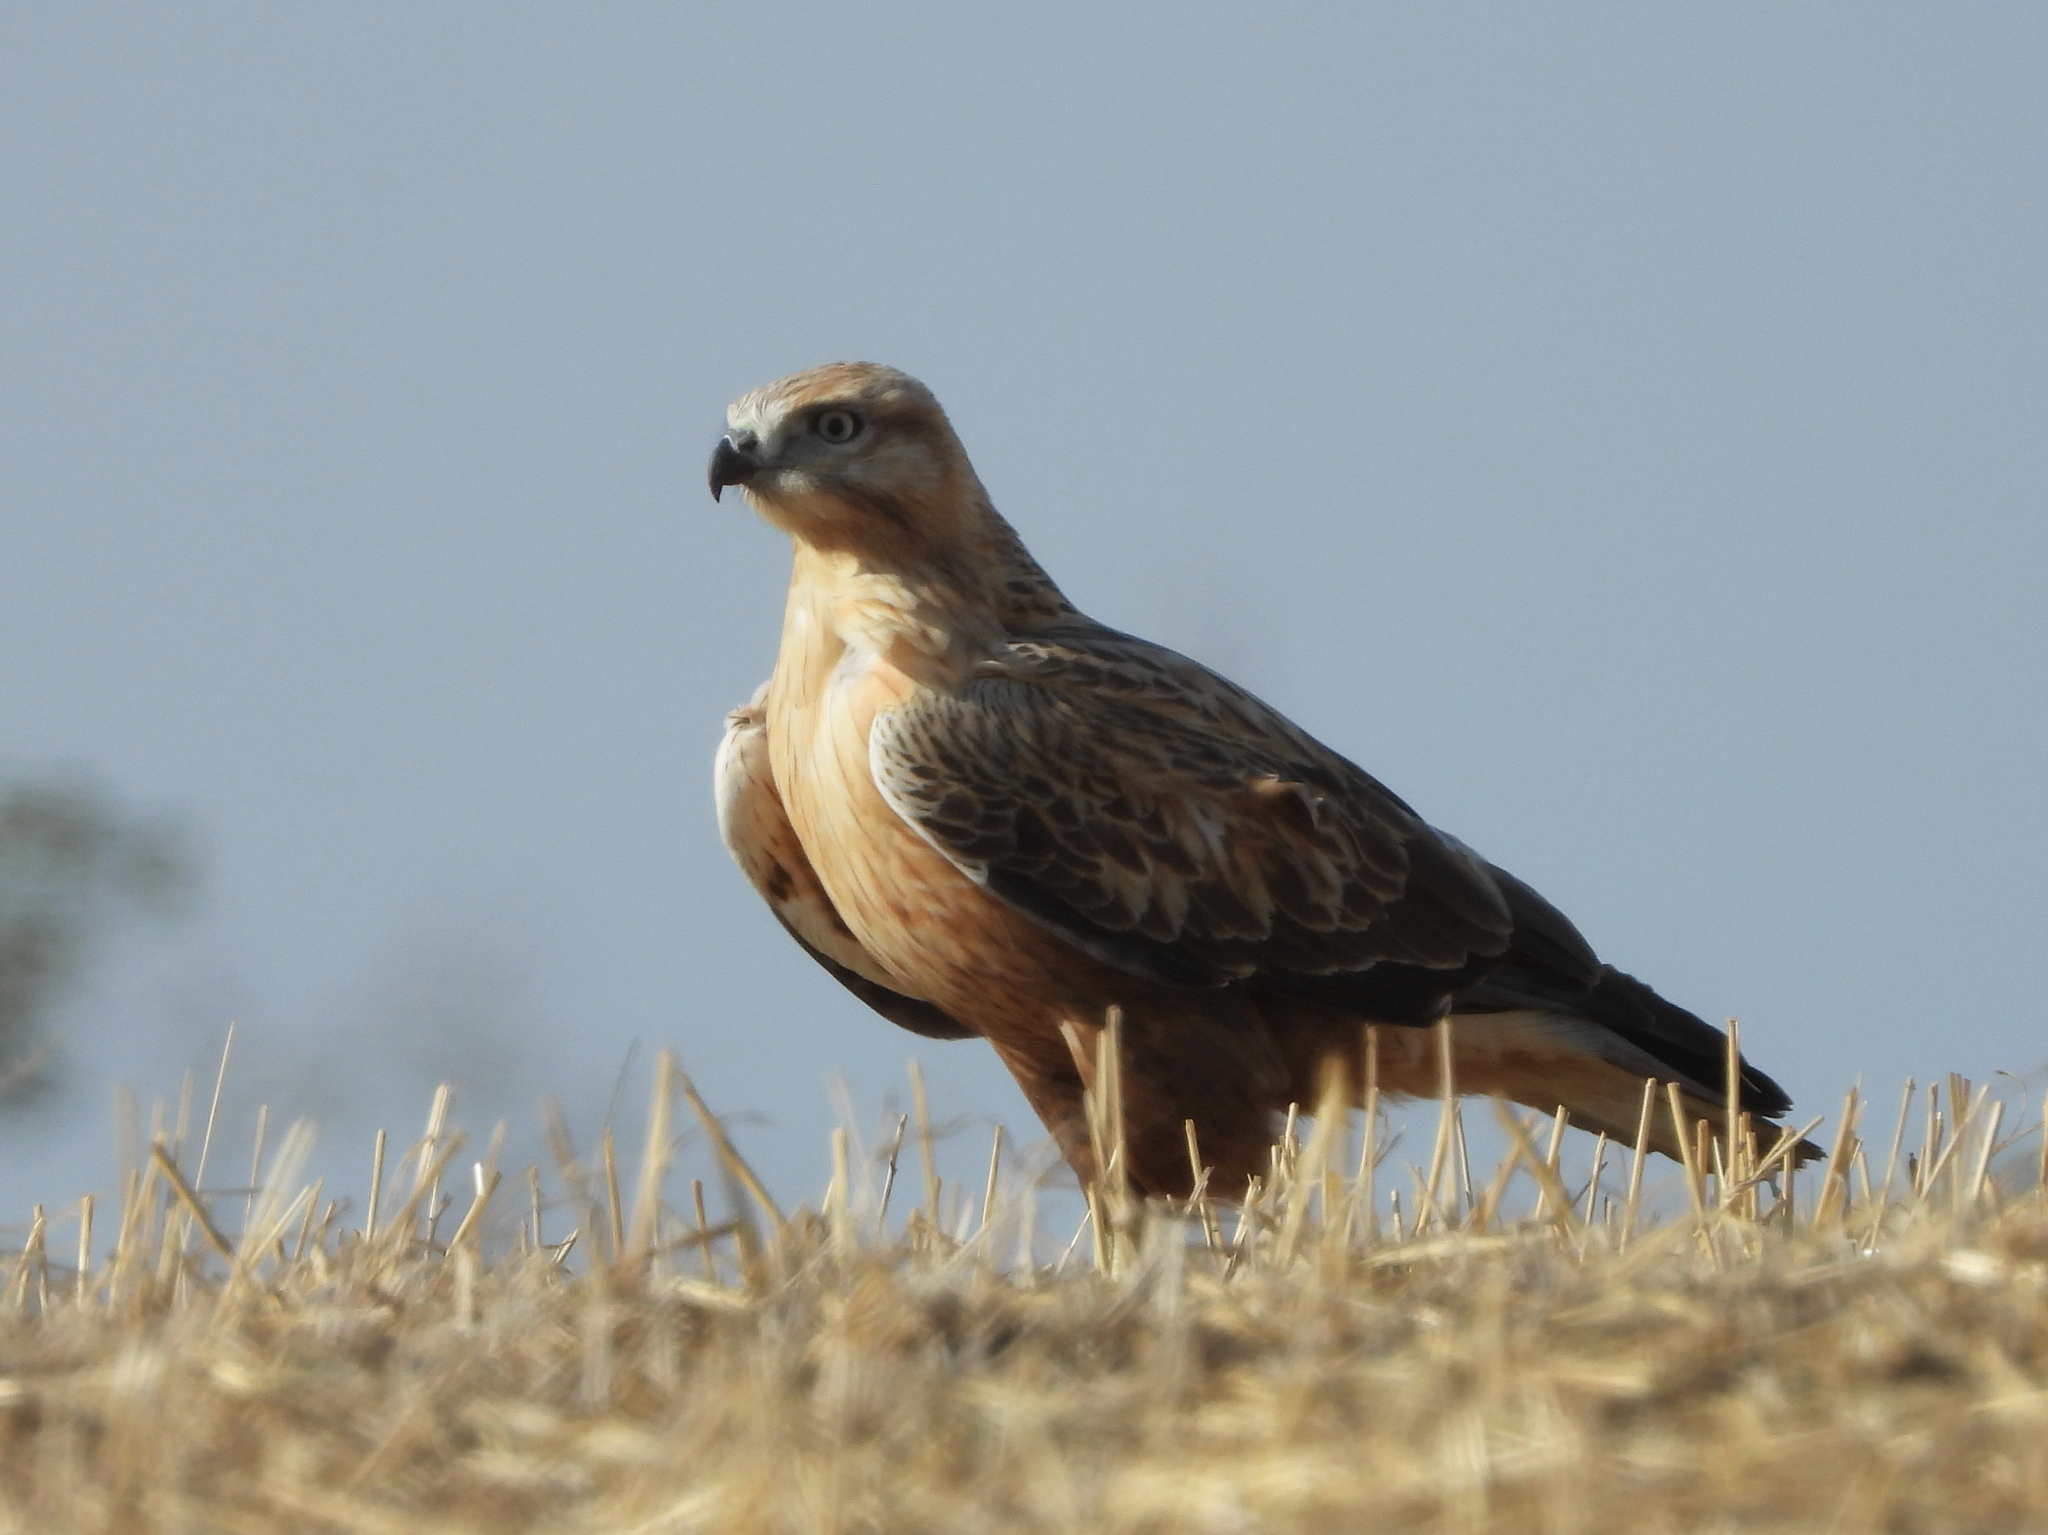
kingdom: Animalia
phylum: Chordata
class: Aves
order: Accipitriformes
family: Accipitridae
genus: Buteo
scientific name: Buteo rufinus
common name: Long-legged buzzard
